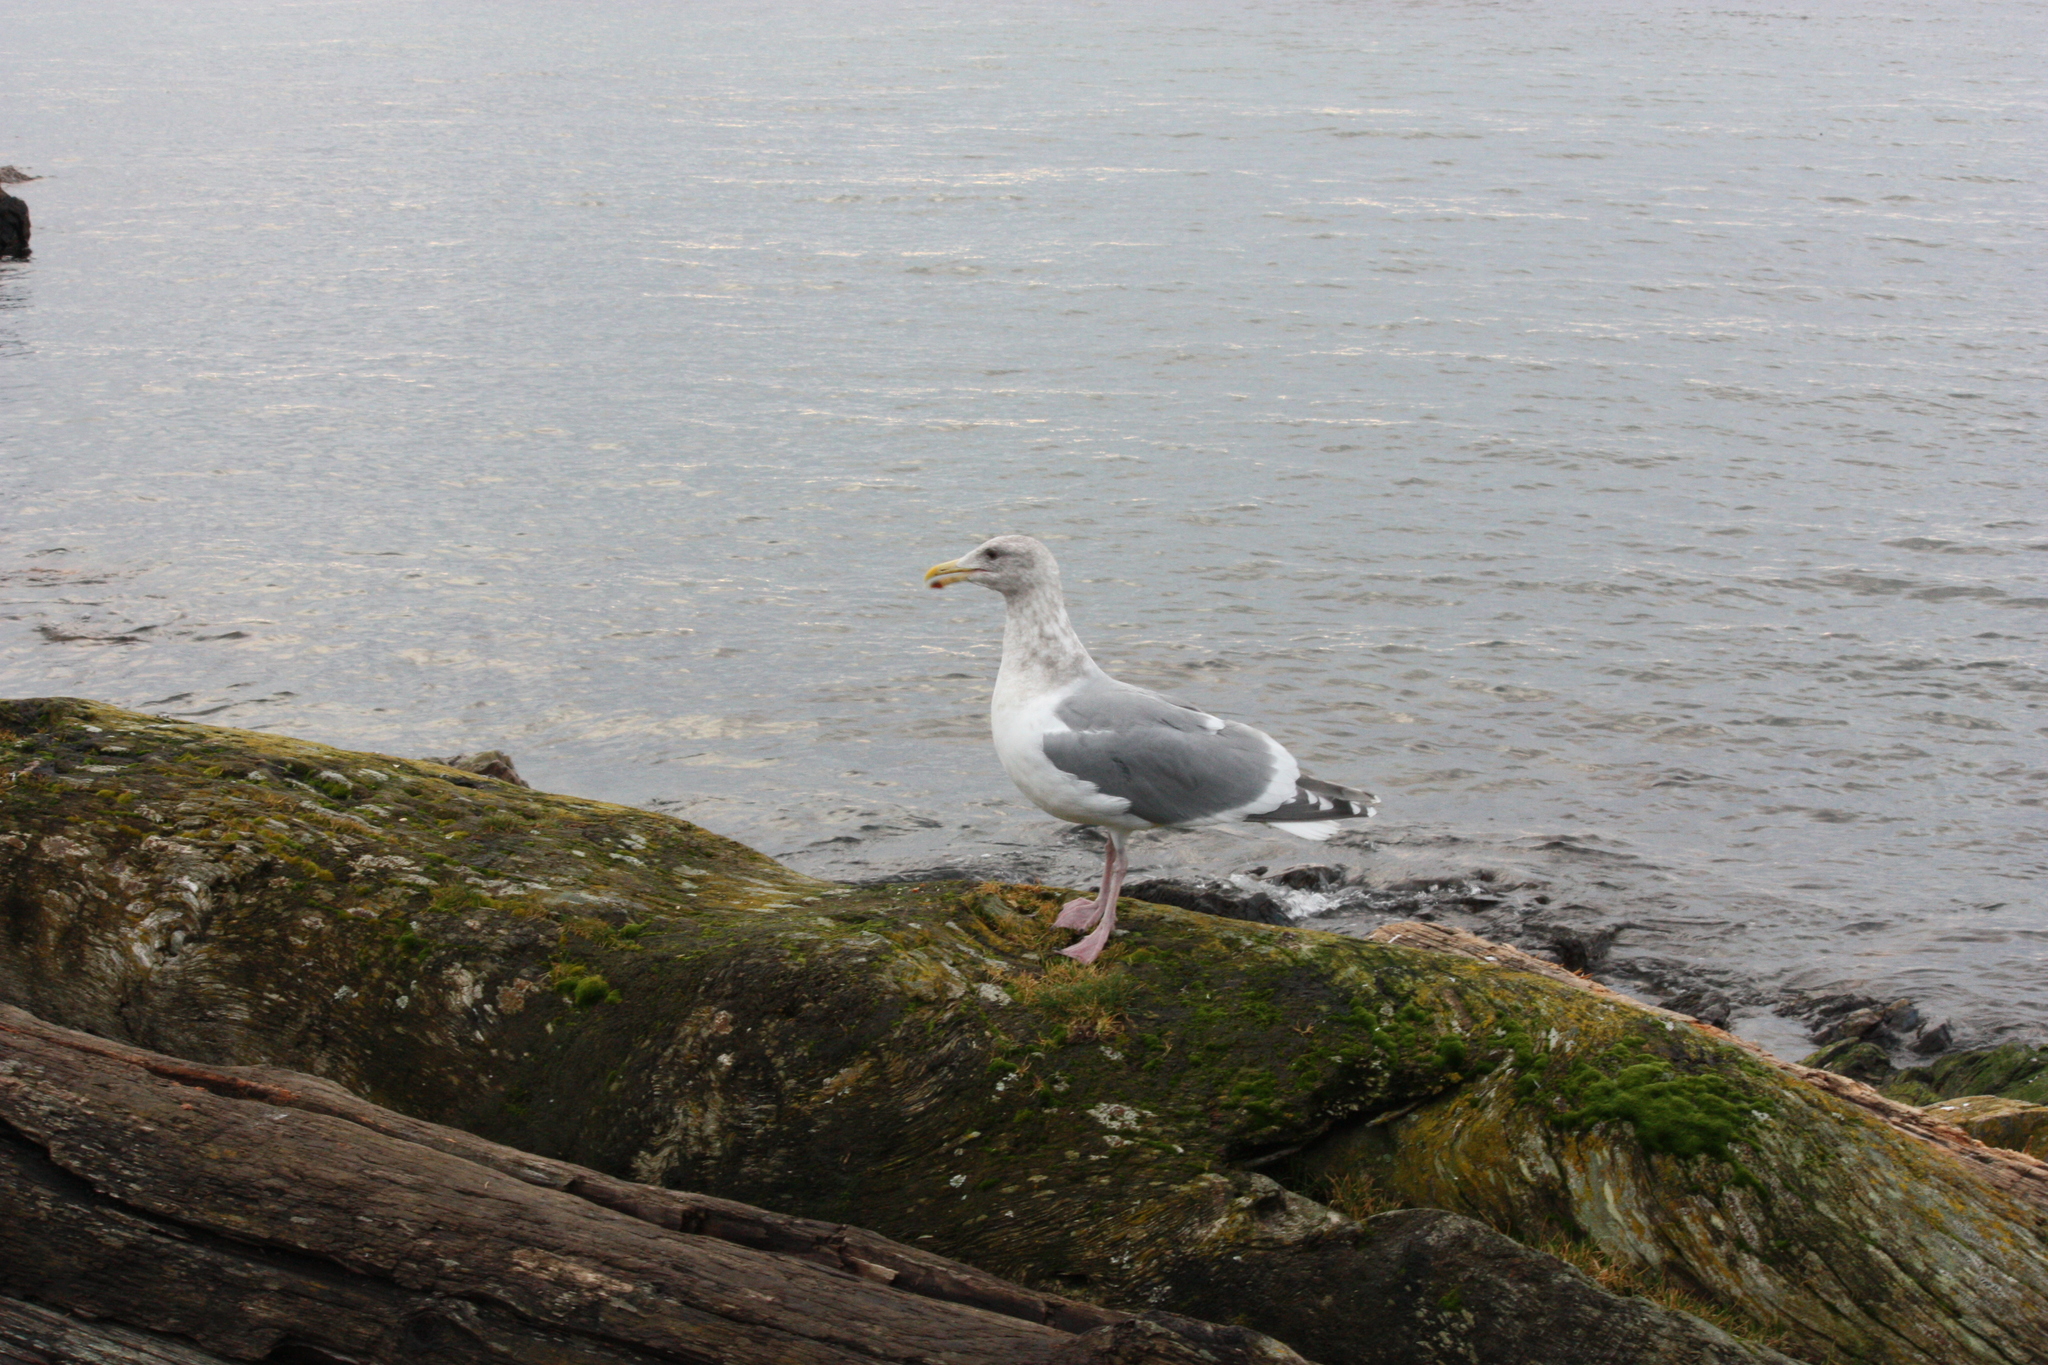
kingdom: Animalia
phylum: Chordata
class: Aves
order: Charadriiformes
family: Laridae
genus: Larus
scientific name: Larus
